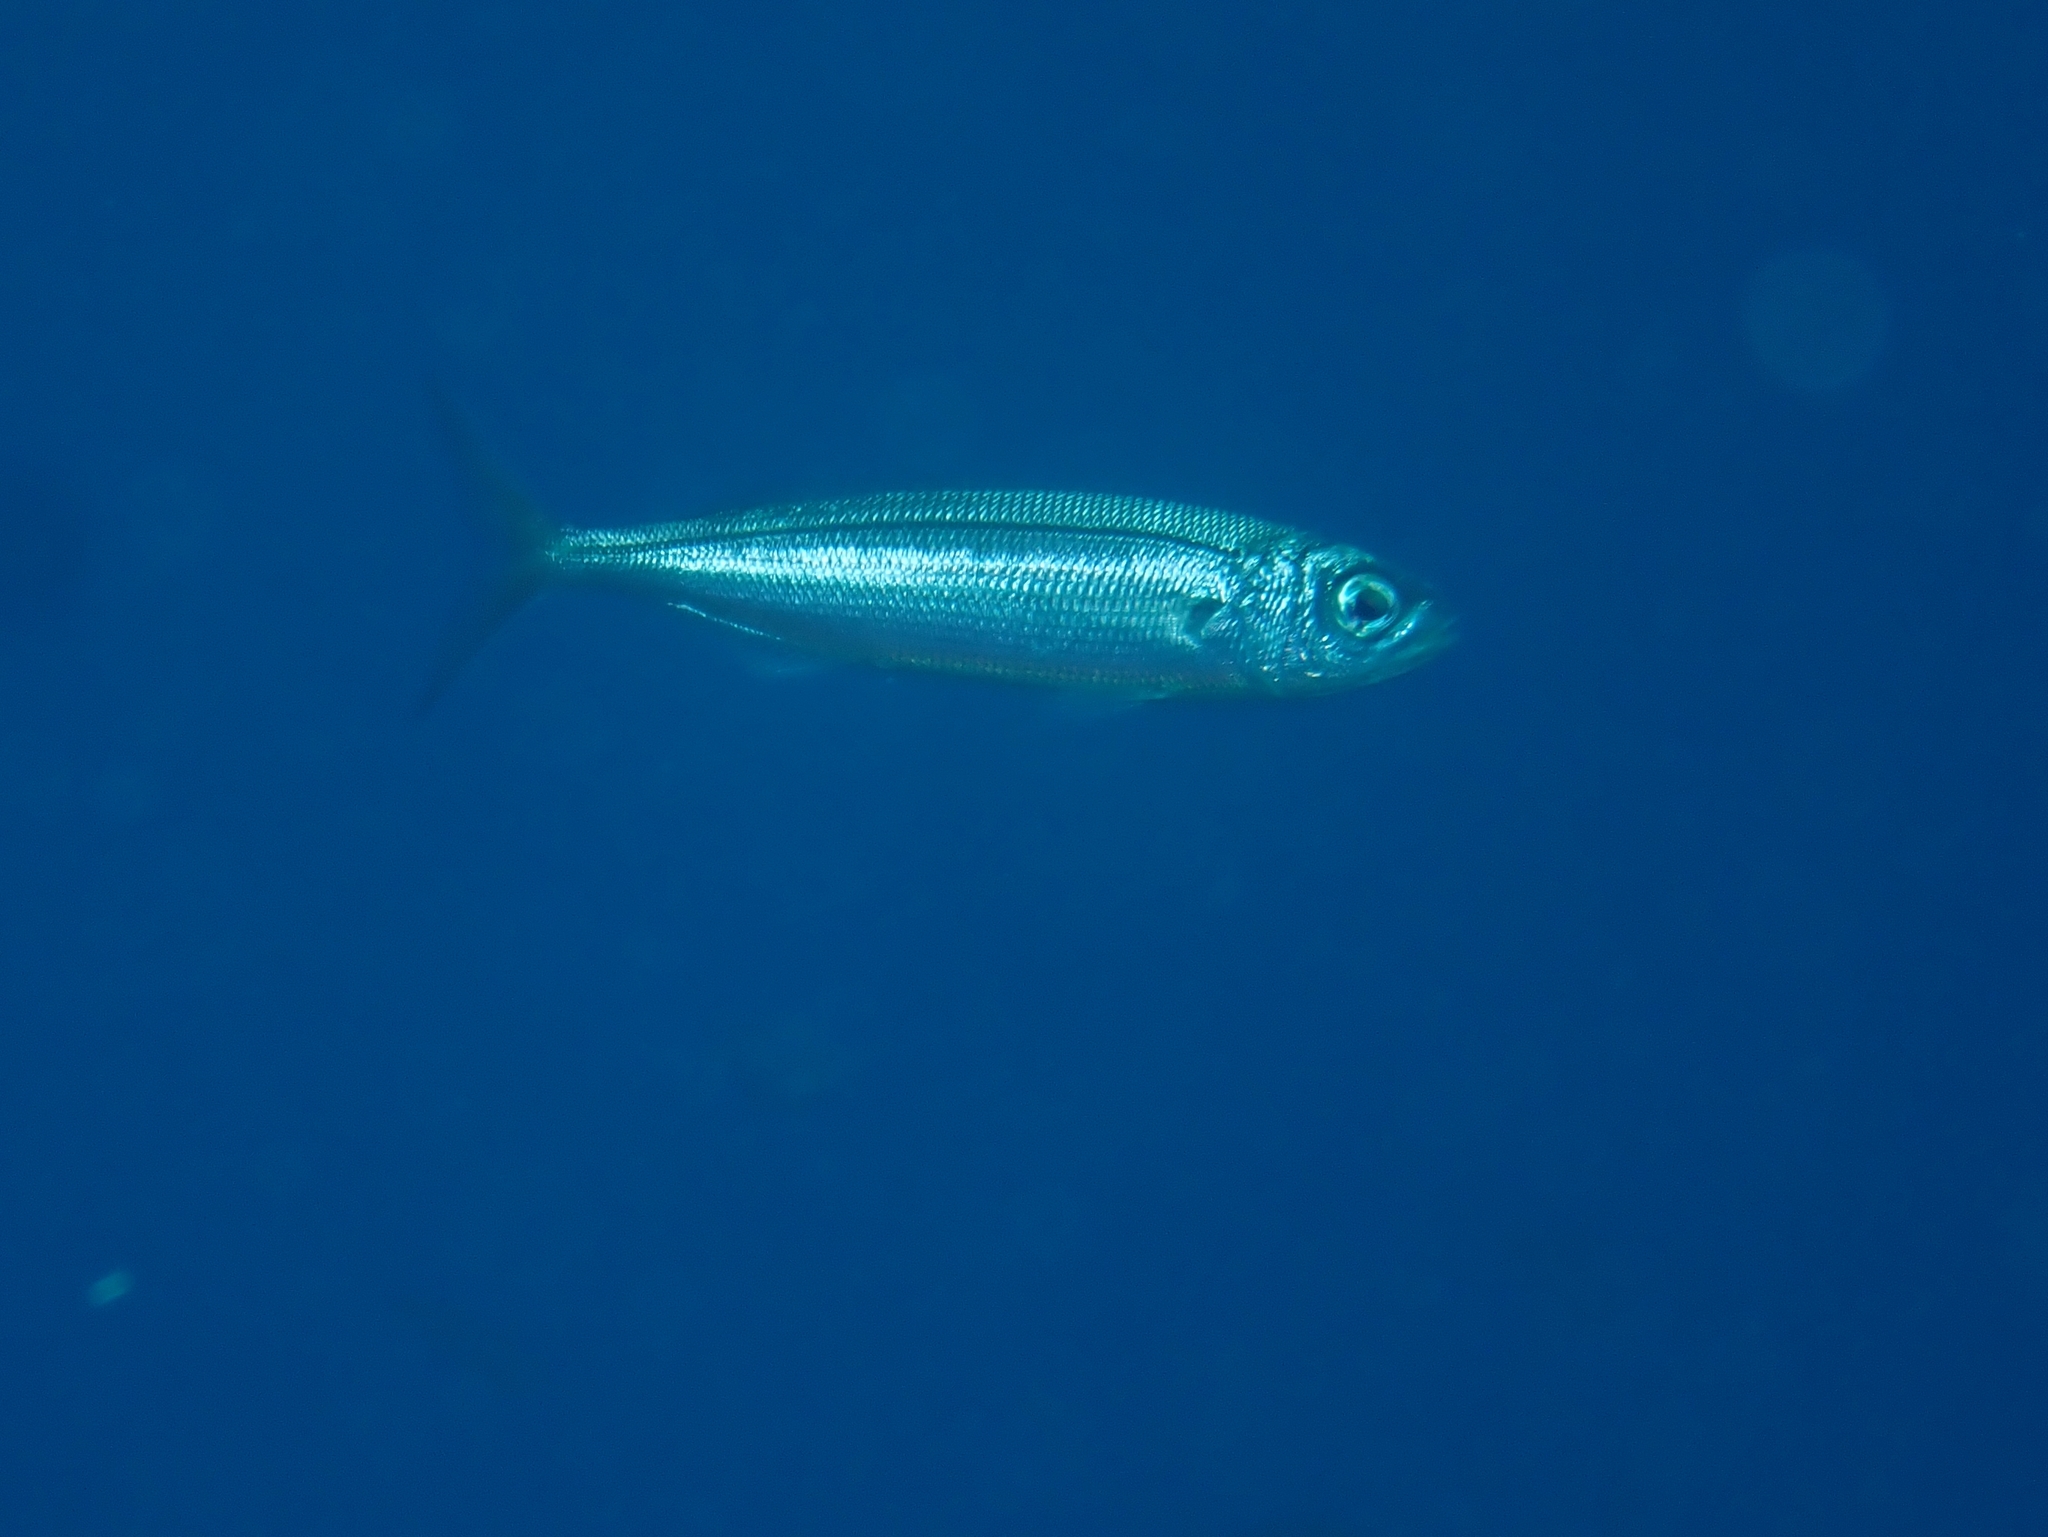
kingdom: Animalia
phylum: Chordata
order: Perciformes
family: Sparidae
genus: Boops
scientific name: Boops boops
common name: Bogue
